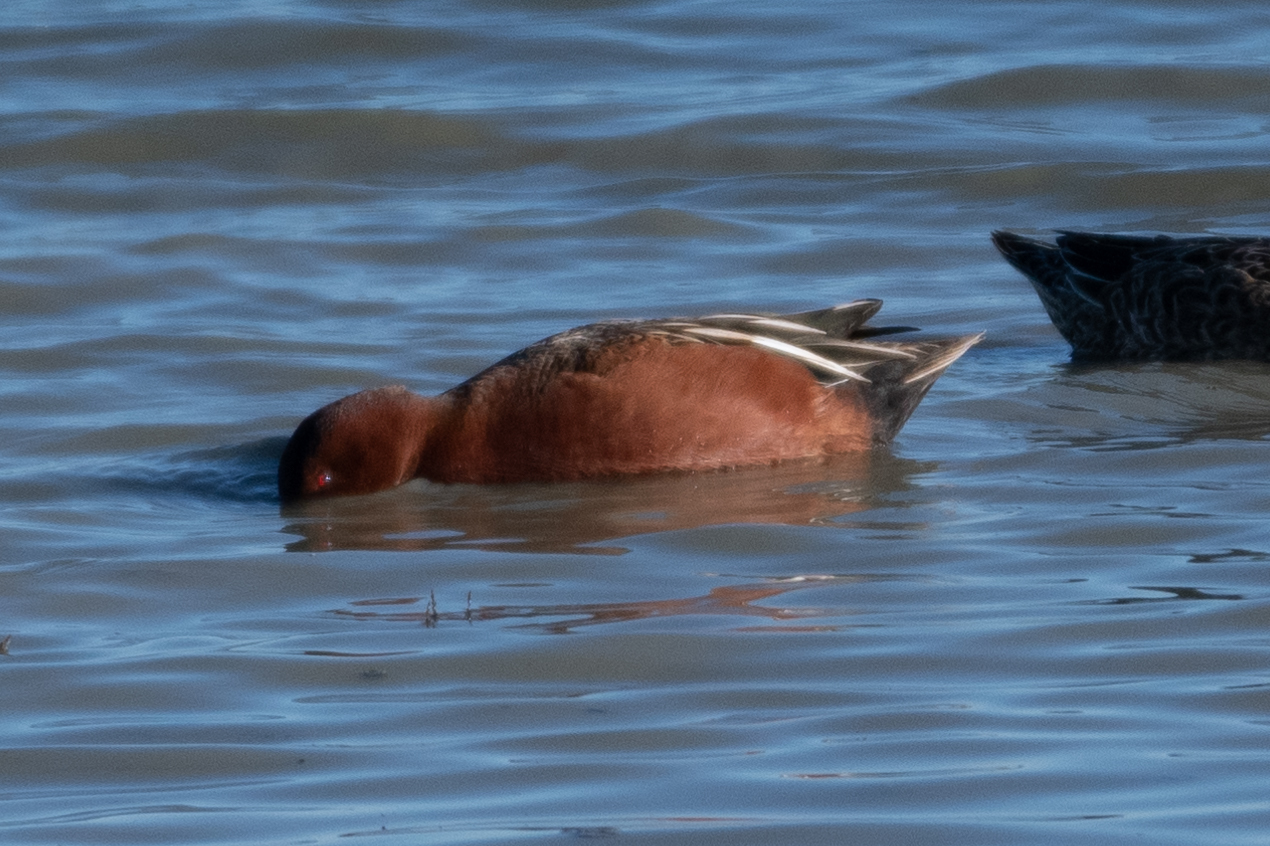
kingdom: Animalia
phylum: Chordata
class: Aves
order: Anseriformes
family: Anatidae
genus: Spatula
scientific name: Spatula cyanoptera
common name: Cinnamon teal
